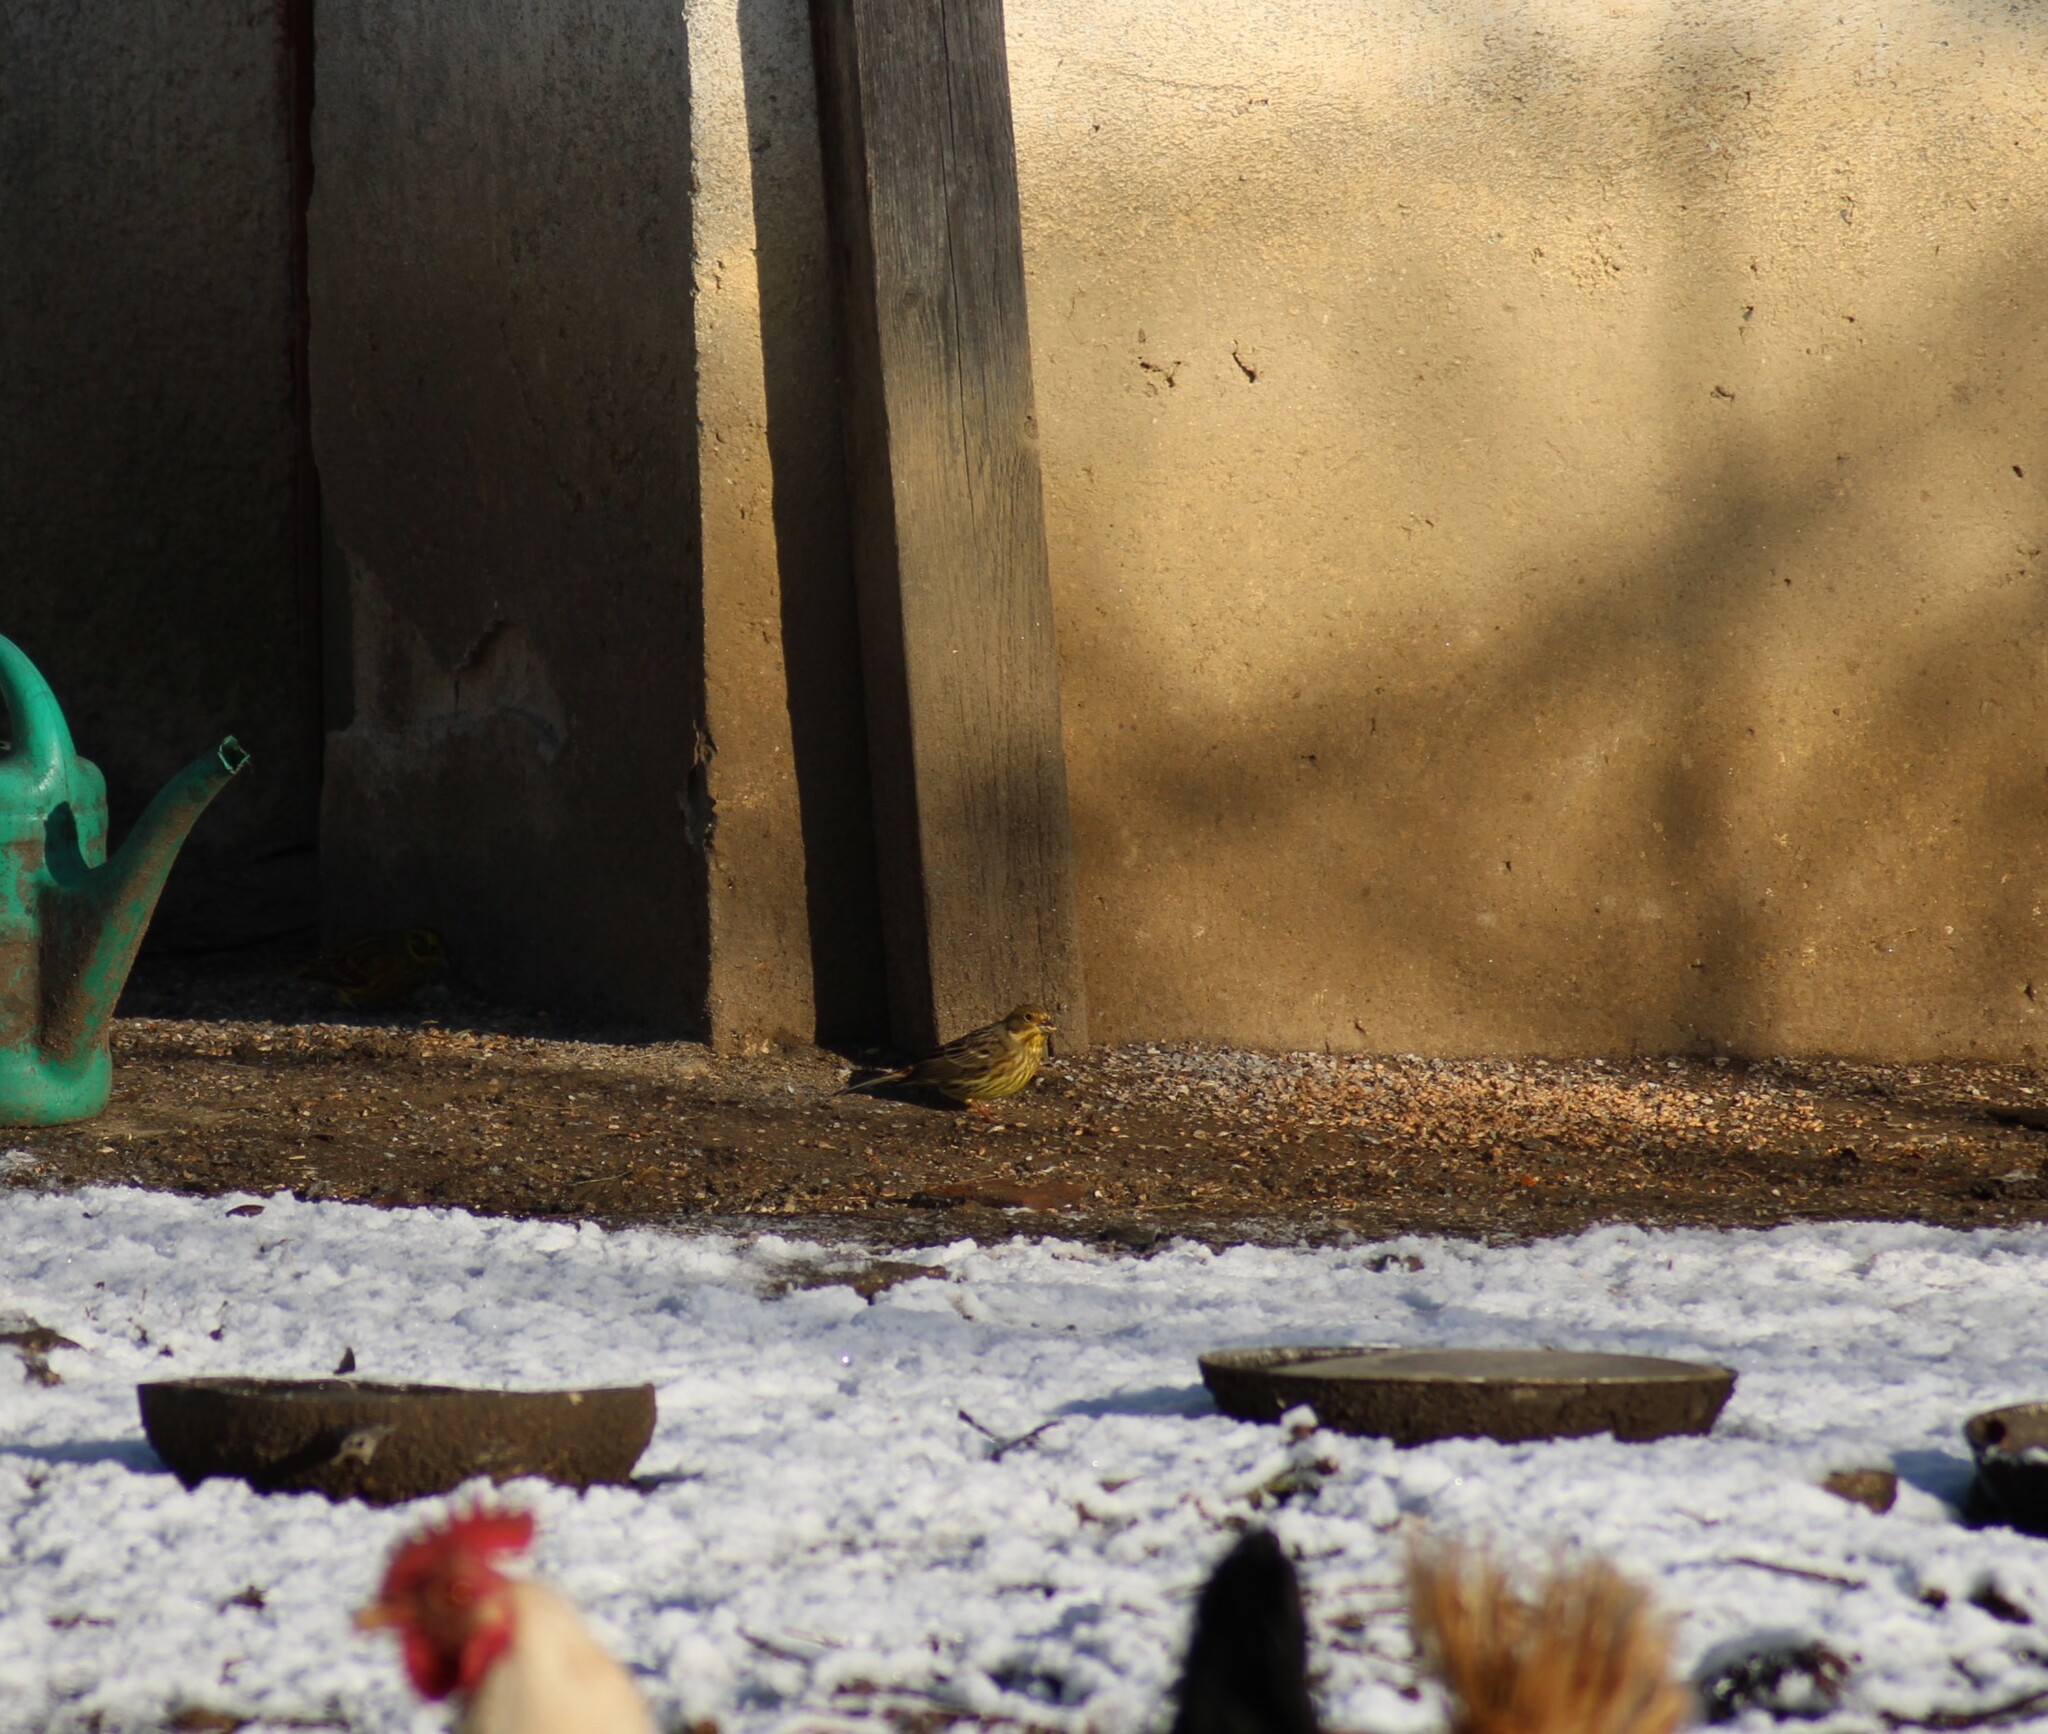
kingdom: Animalia
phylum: Chordata
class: Aves
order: Passeriformes
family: Emberizidae
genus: Emberiza
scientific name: Emberiza citrinella
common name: Yellowhammer
